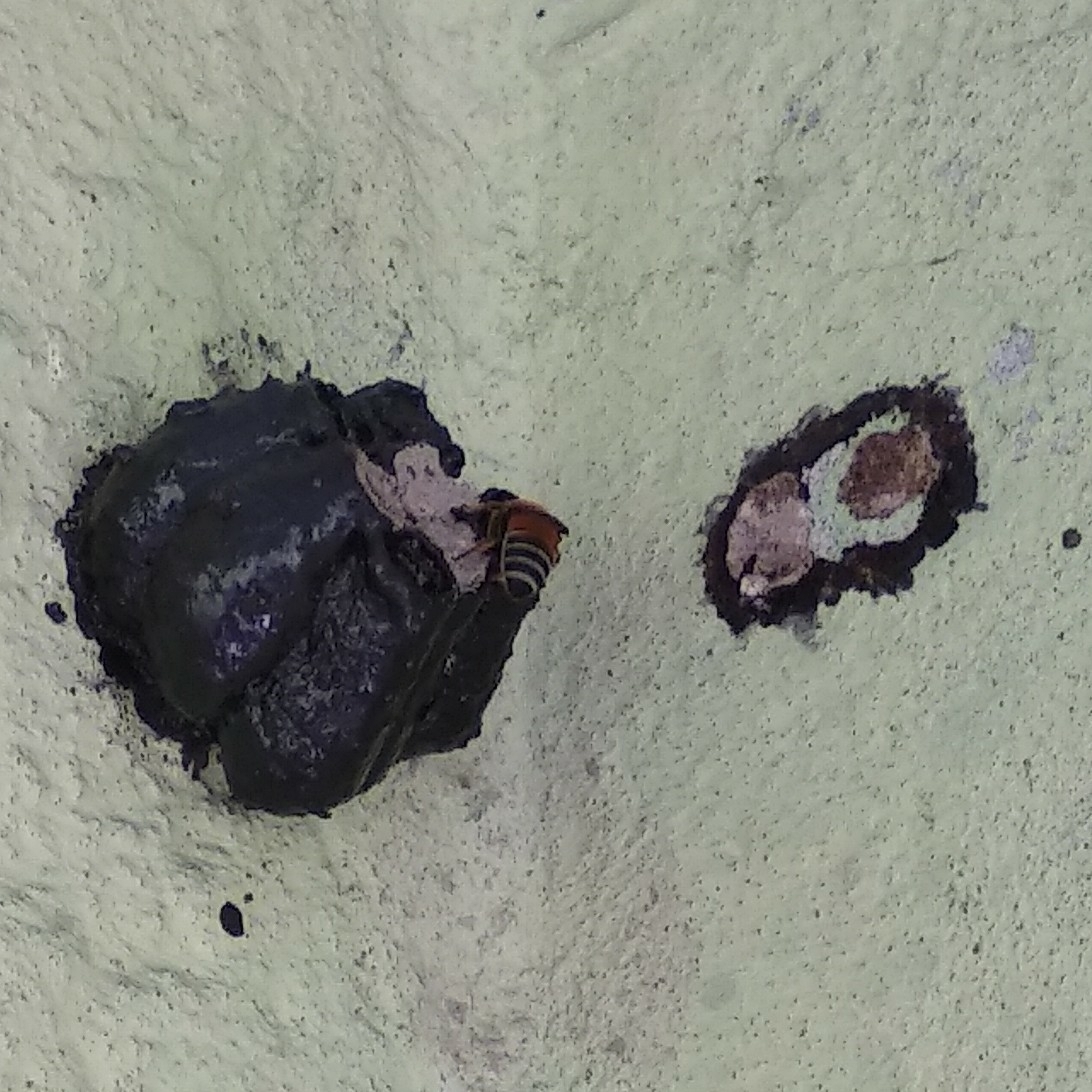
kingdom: Animalia
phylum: Arthropoda
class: Insecta
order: Hymenoptera
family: Megachilidae
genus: Megachile
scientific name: Megachile lanata
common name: Wooly wall bee
